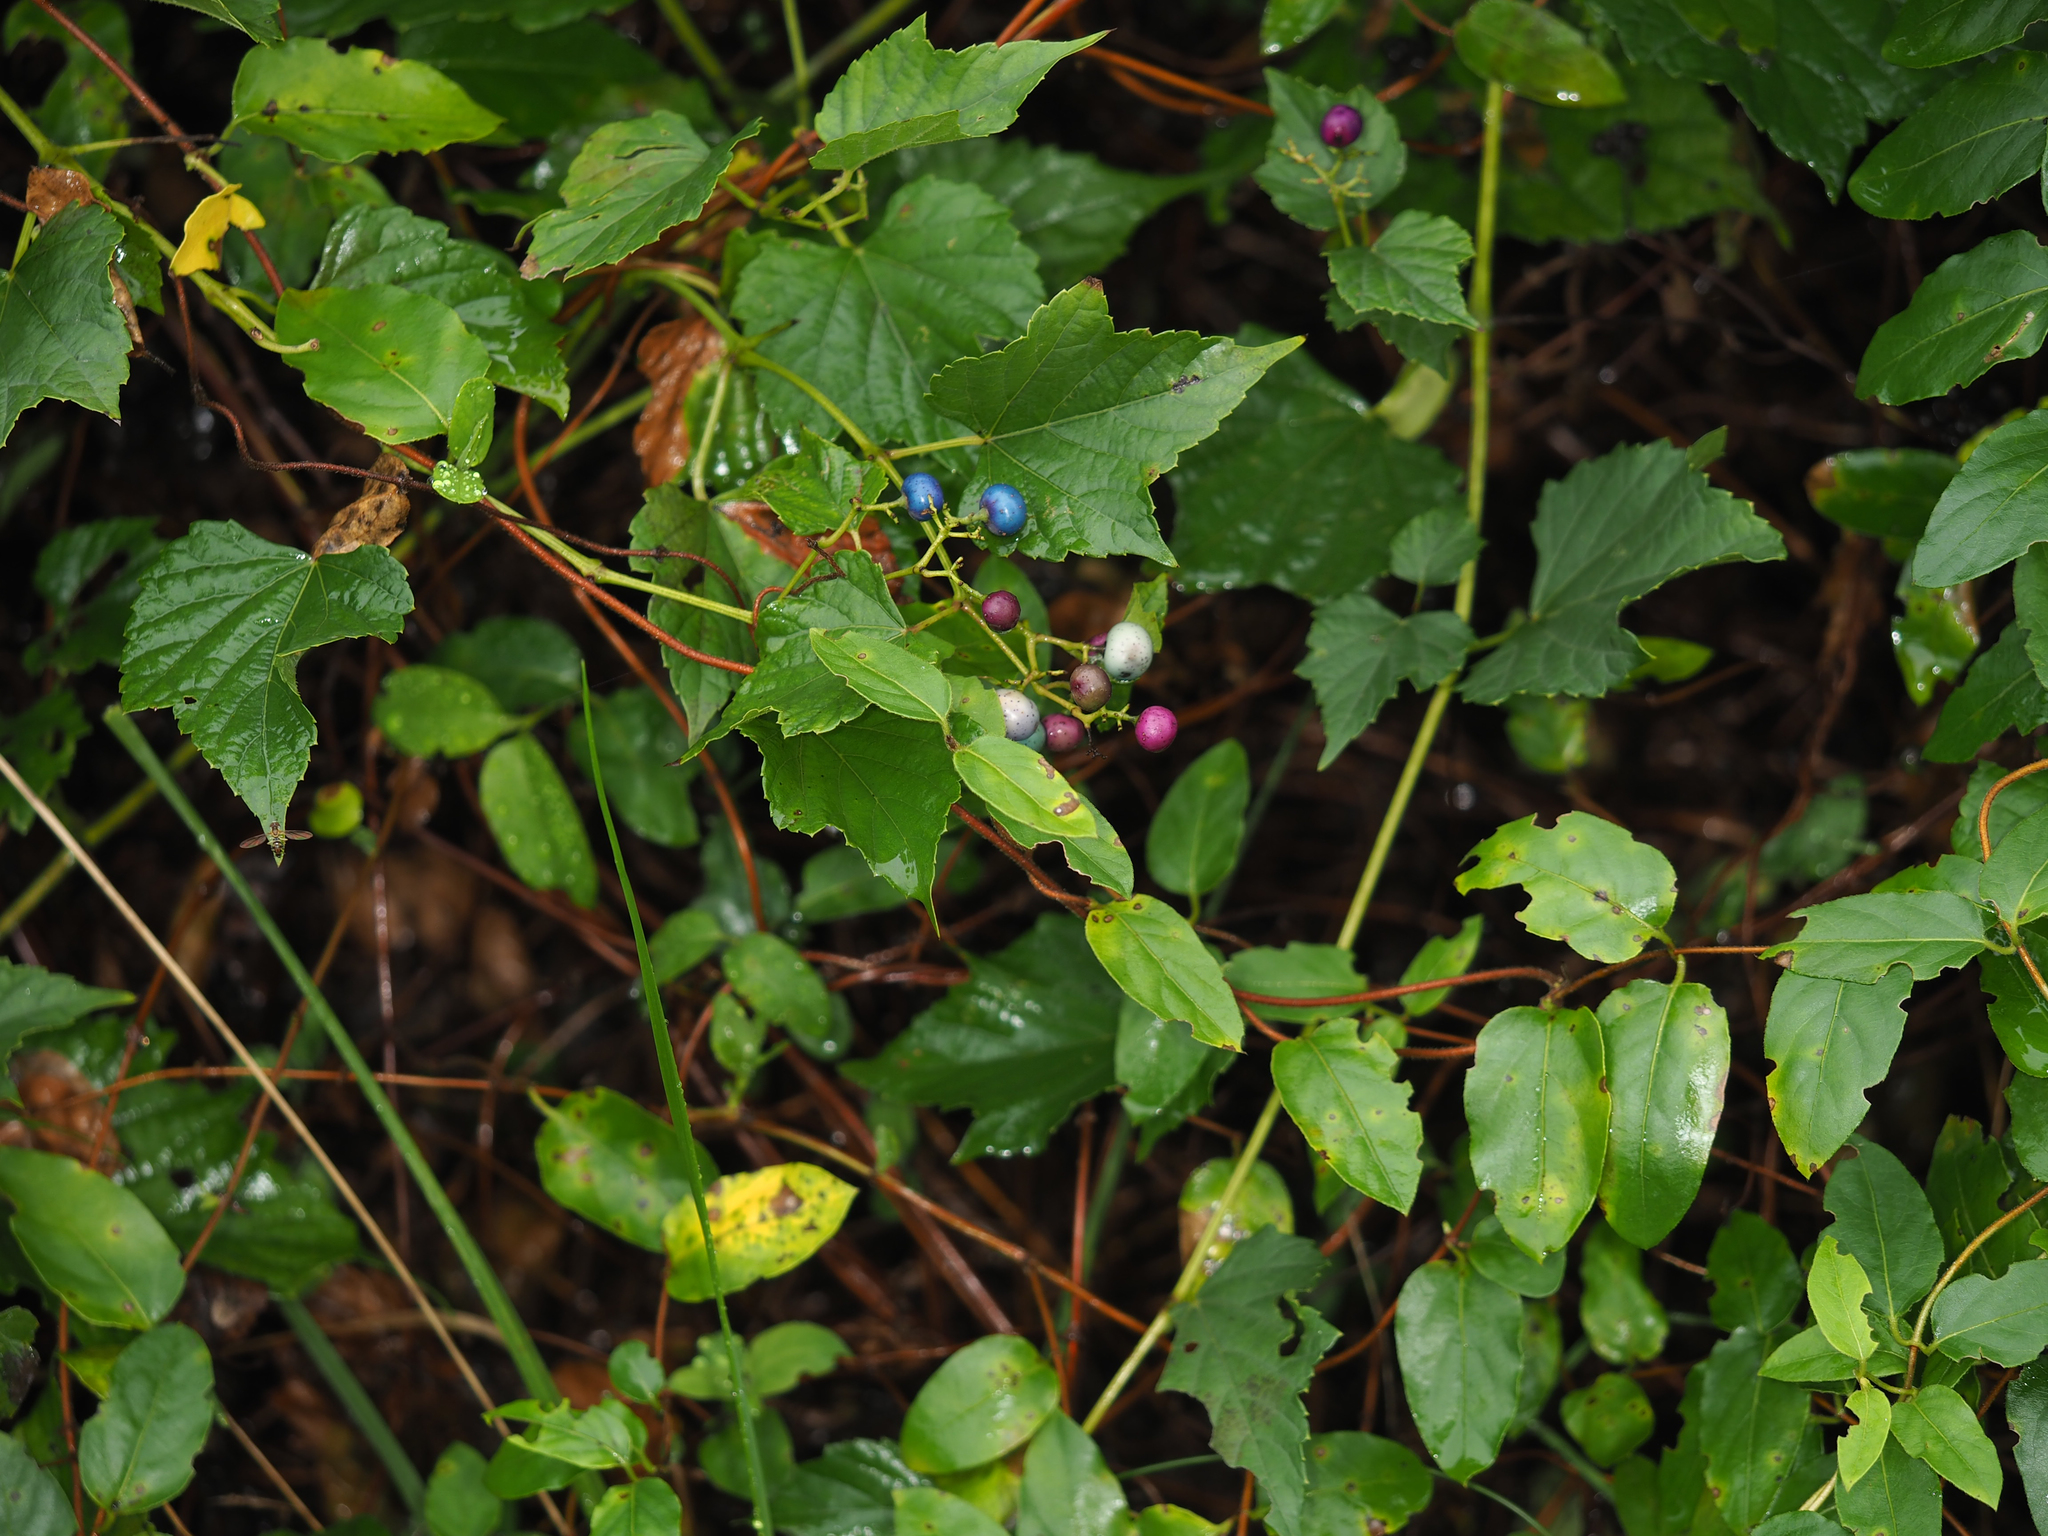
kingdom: Plantae
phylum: Tracheophyta
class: Magnoliopsida
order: Vitales
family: Vitaceae
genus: Ampelopsis
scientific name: Ampelopsis glandulosa
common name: Amur peppervine
